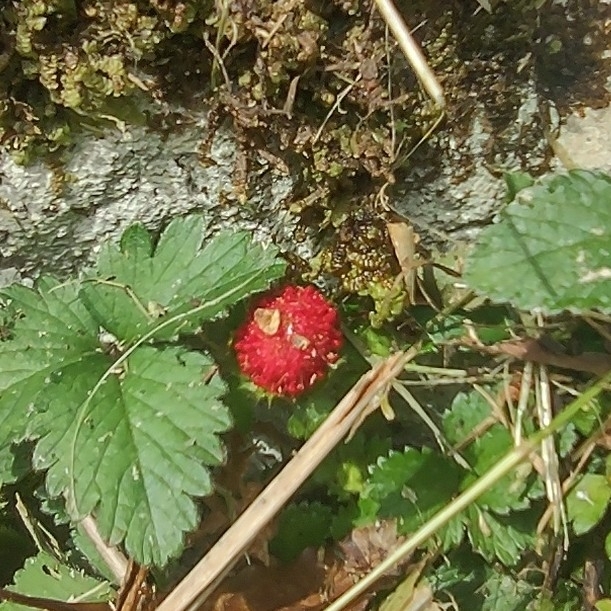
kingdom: Plantae
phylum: Tracheophyta
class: Magnoliopsida
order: Rosales
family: Rosaceae
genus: Potentilla
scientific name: Potentilla indica
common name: Yellow-flowered strawberry
